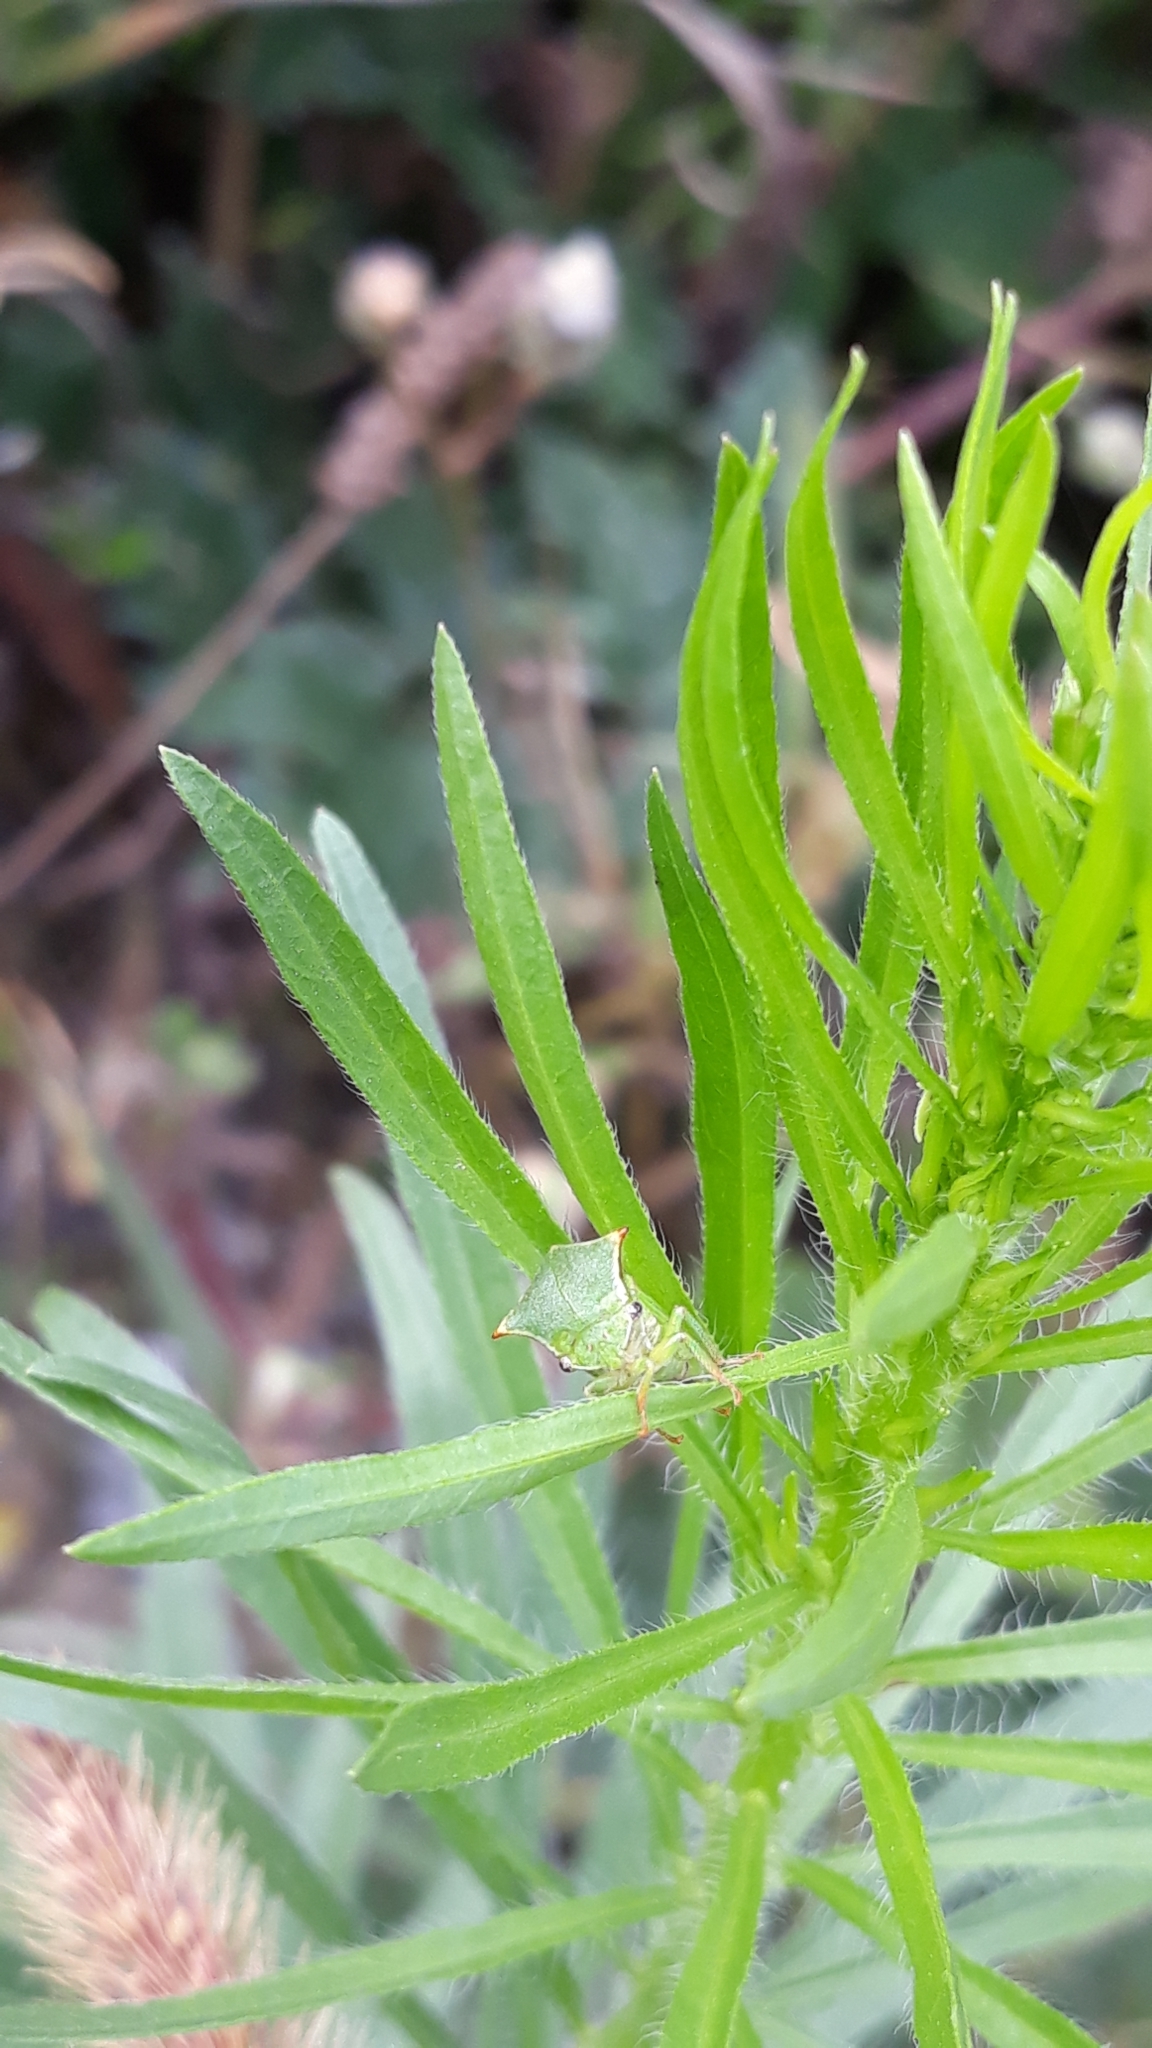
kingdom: Animalia
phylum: Arthropoda
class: Insecta
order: Hemiptera
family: Membracidae
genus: Stictocephala
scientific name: Stictocephala bisonia
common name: American buffalo treehopper
